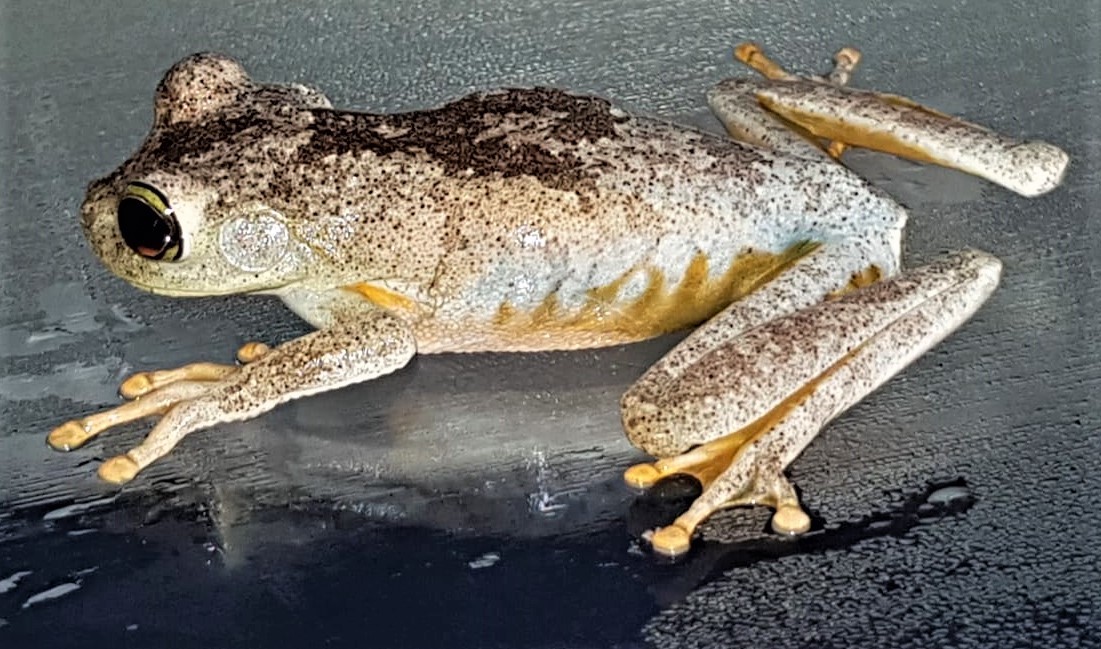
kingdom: Animalia
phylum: Chordata
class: Amphibia
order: Anura
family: Hylidae
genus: Boana
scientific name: Boana xerophylla
